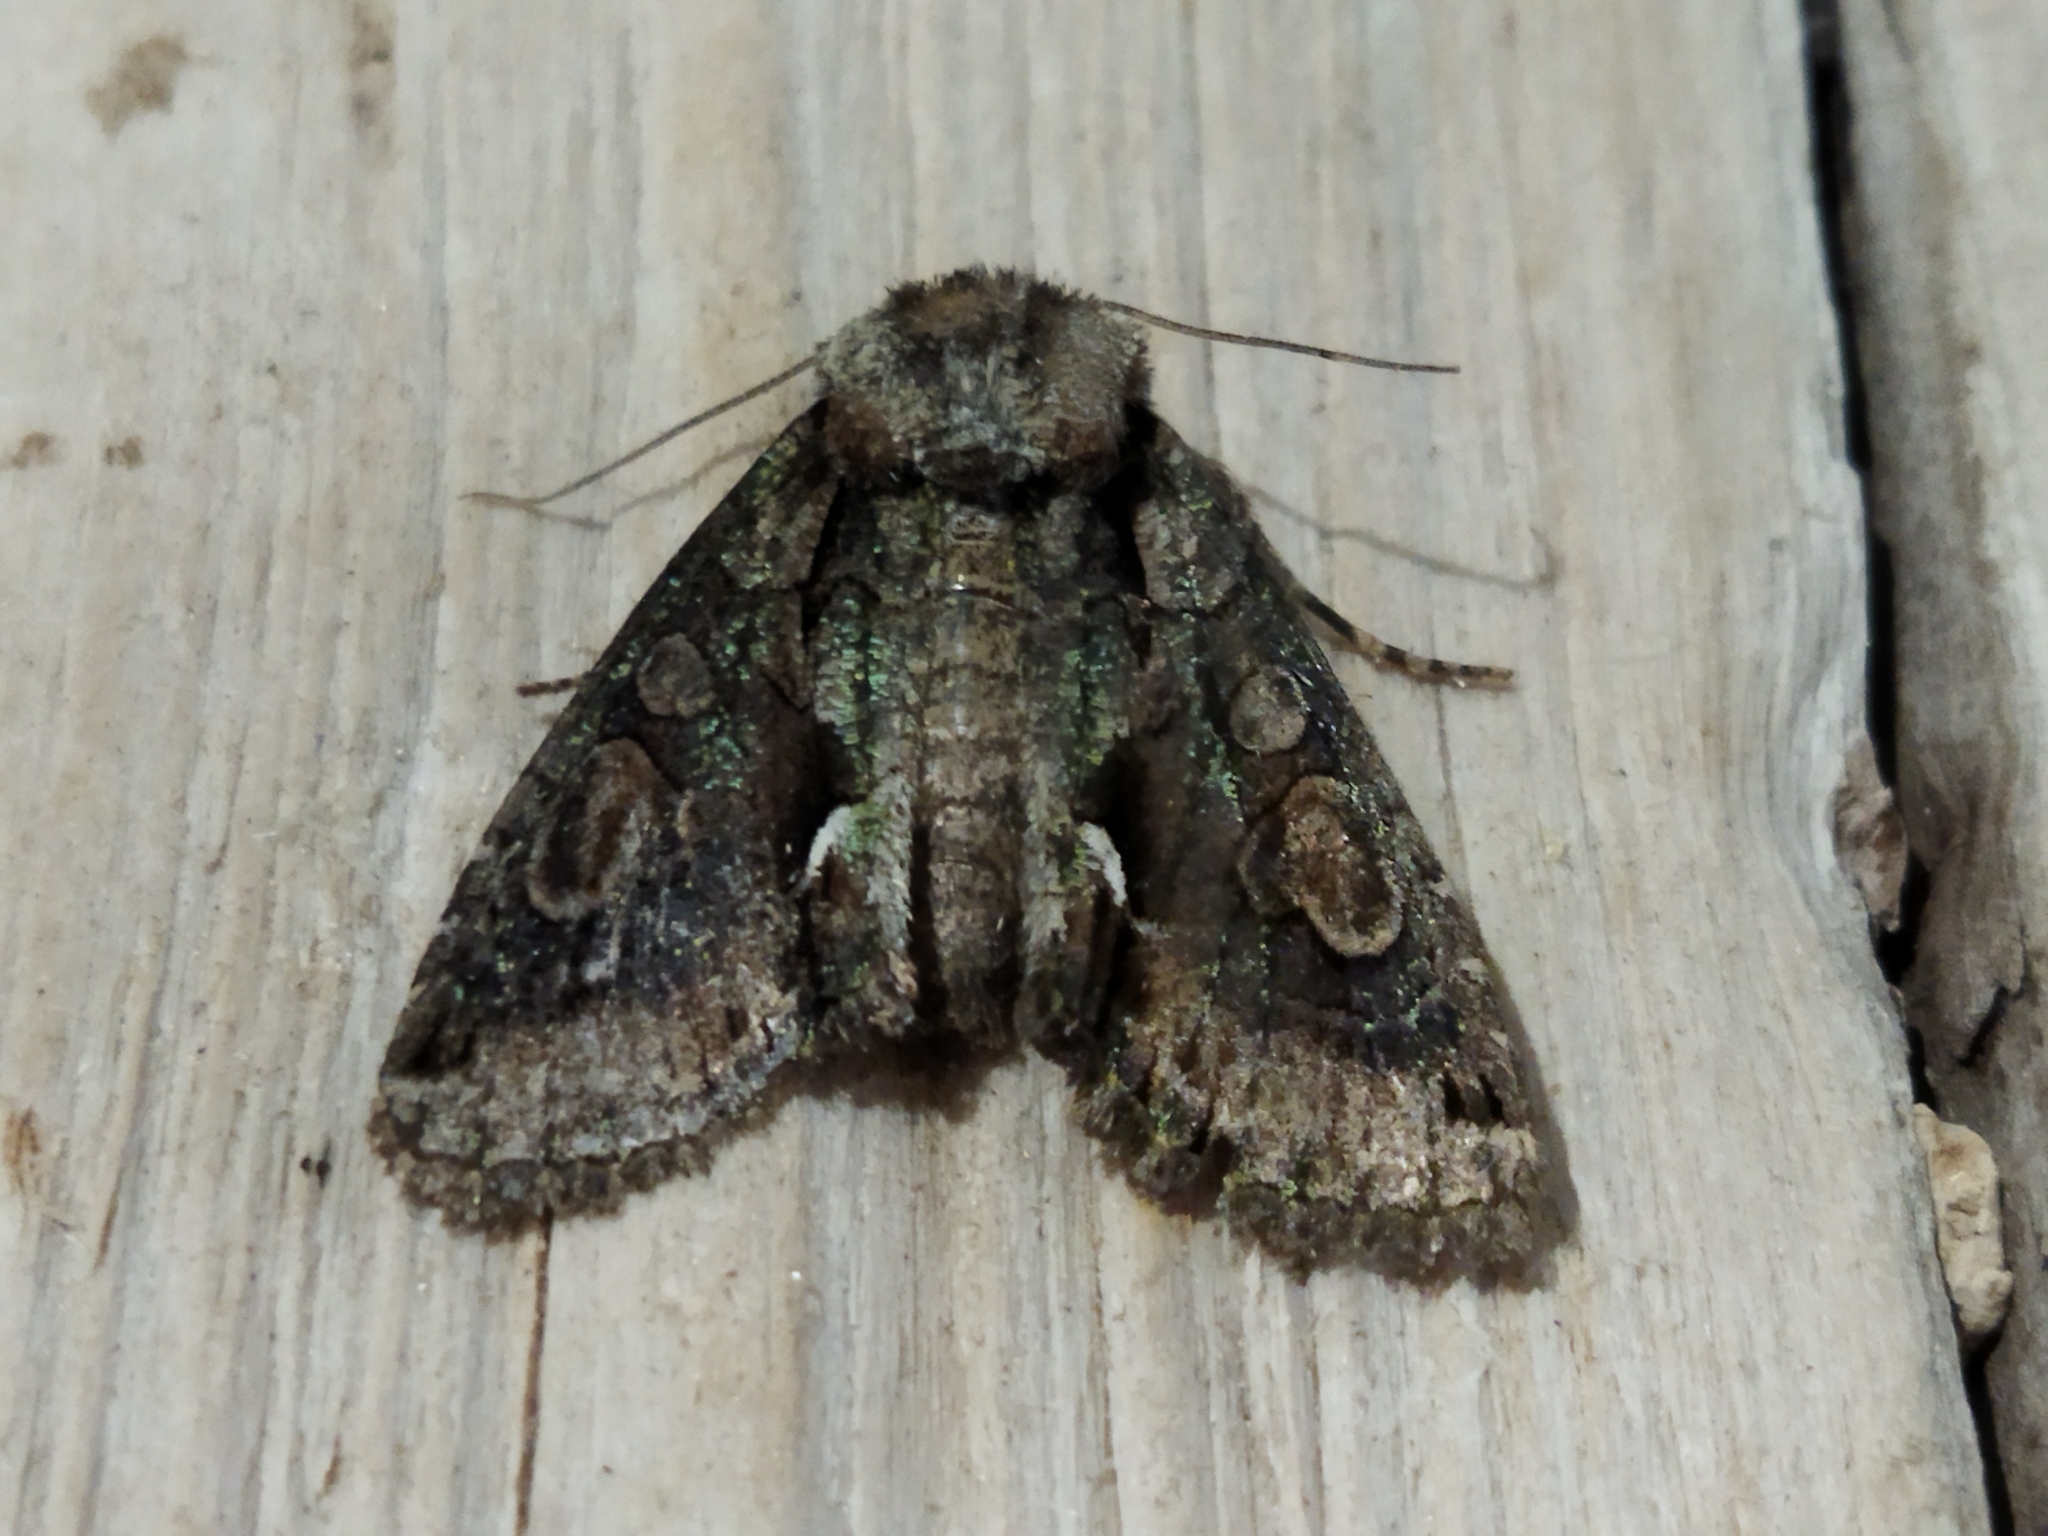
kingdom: Animalia
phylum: Arthropoda
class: Insecta
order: Lepidoptera
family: Noctuidae
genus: Allophyes
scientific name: Allophyes oxyacanthae
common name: Green-brindled crescent
